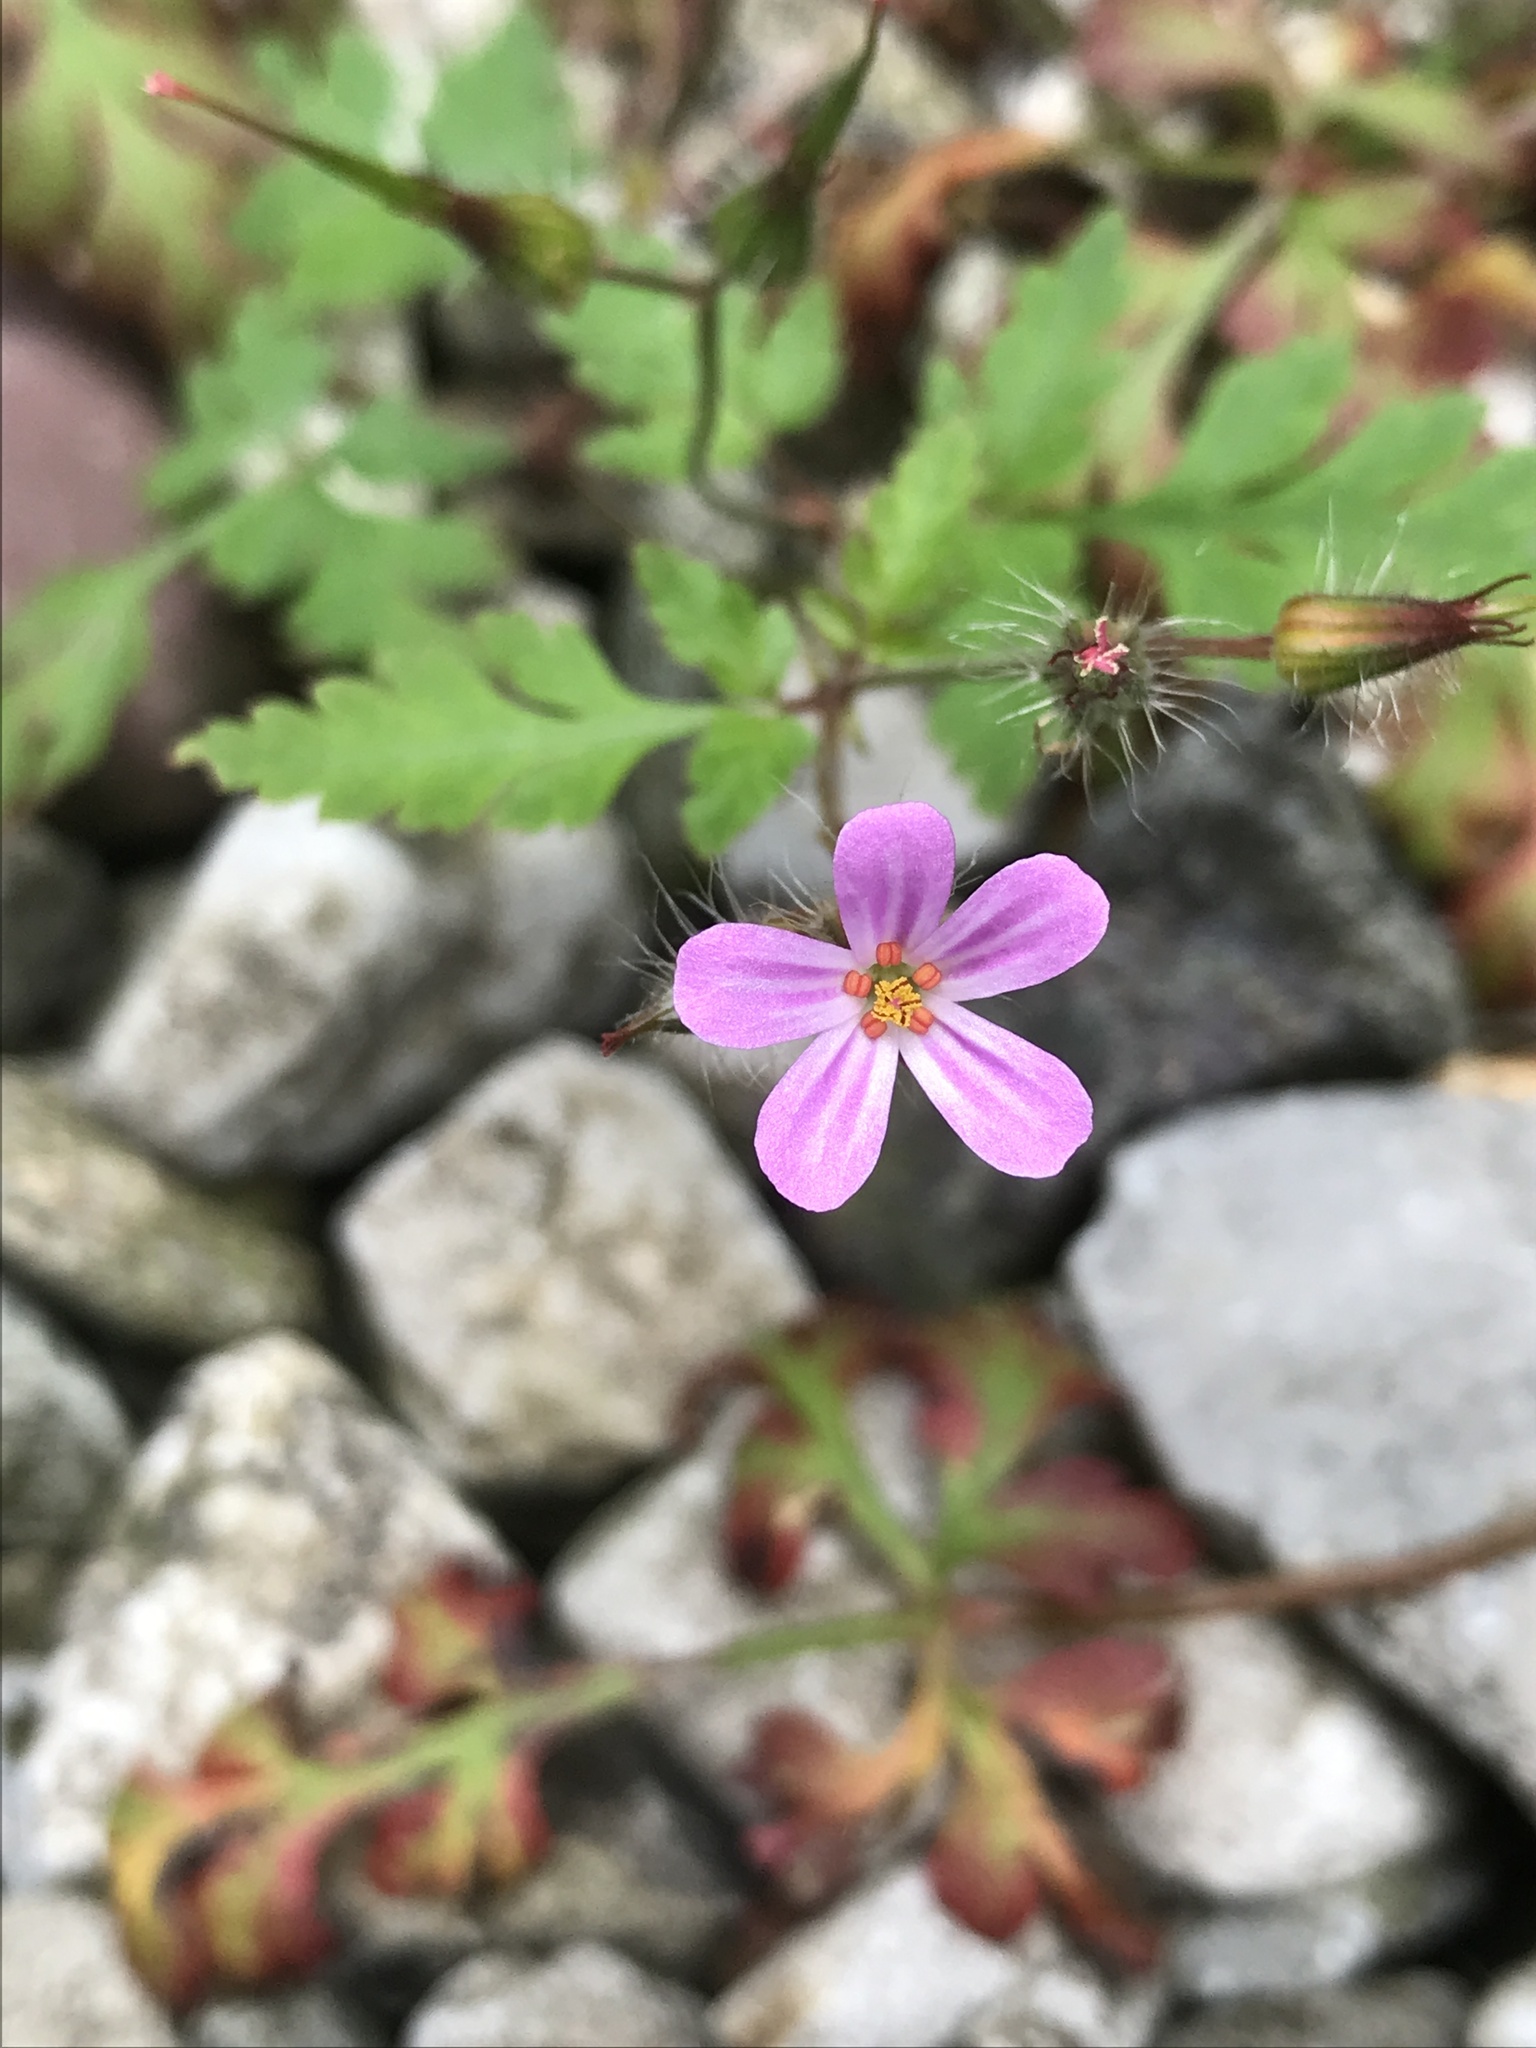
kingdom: Plantae
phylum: Tracheophyta
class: Magnoliopsida
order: Geraniales
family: Geraniaceae
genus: Geranium
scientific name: Geranium robertianum
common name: Herb-robert
